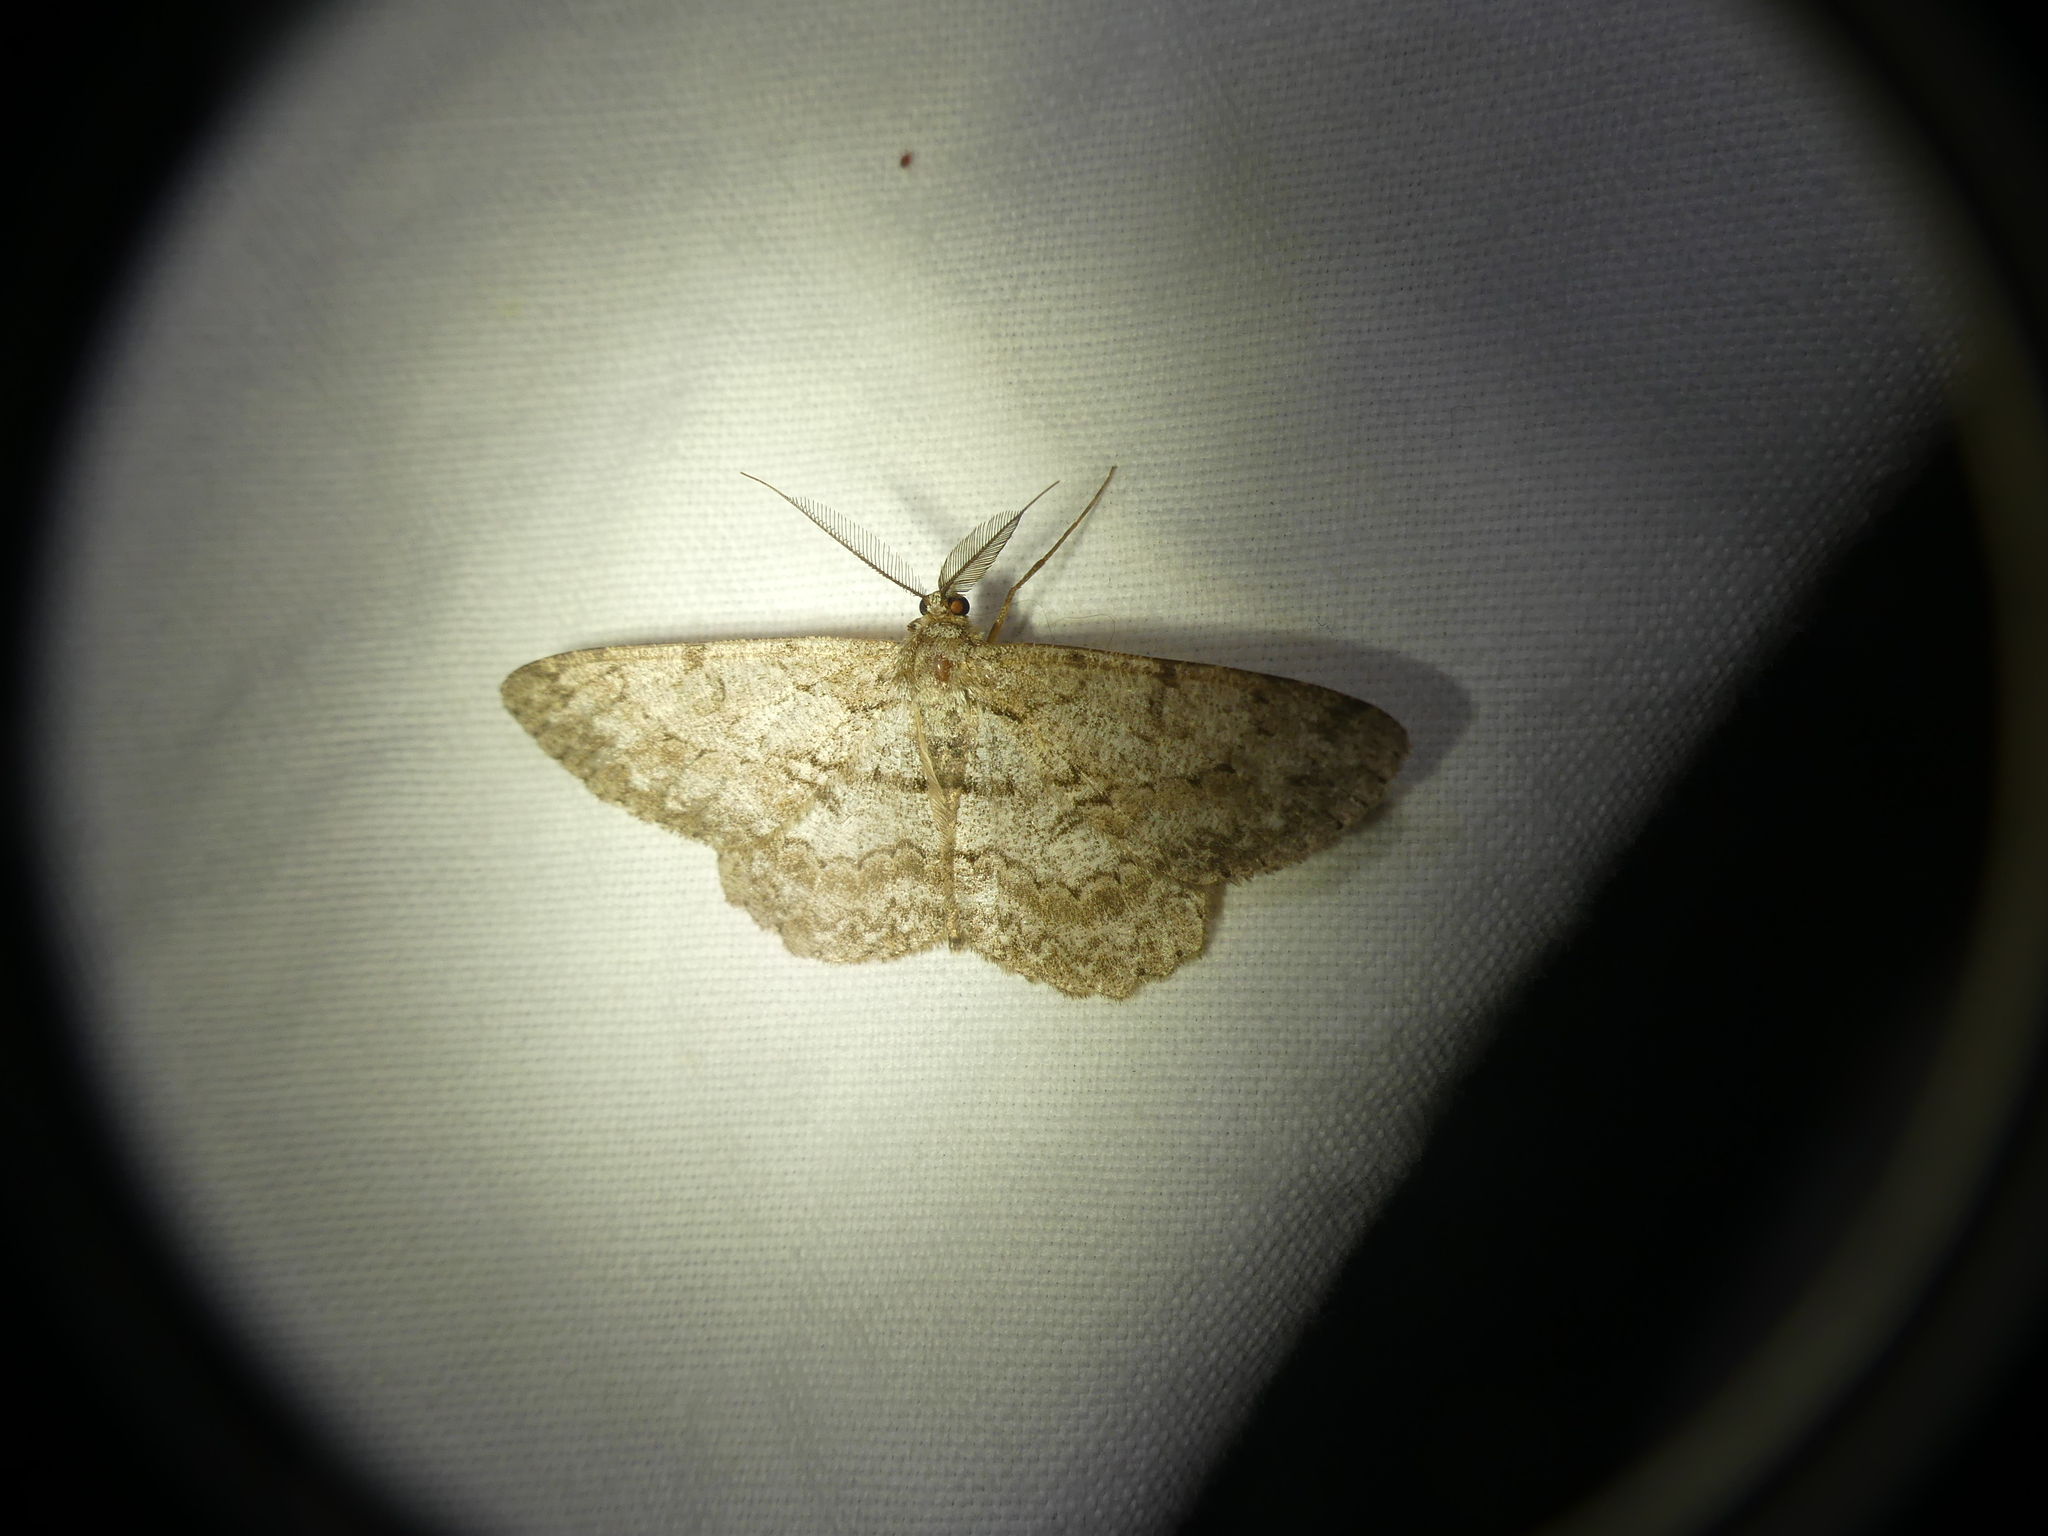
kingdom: Animalia
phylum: Arthropoda
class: Insecta
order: Lepidoptera
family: Geometridae
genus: Hypomecis
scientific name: Hypomecis punctinalis
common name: Pale oak beauty
